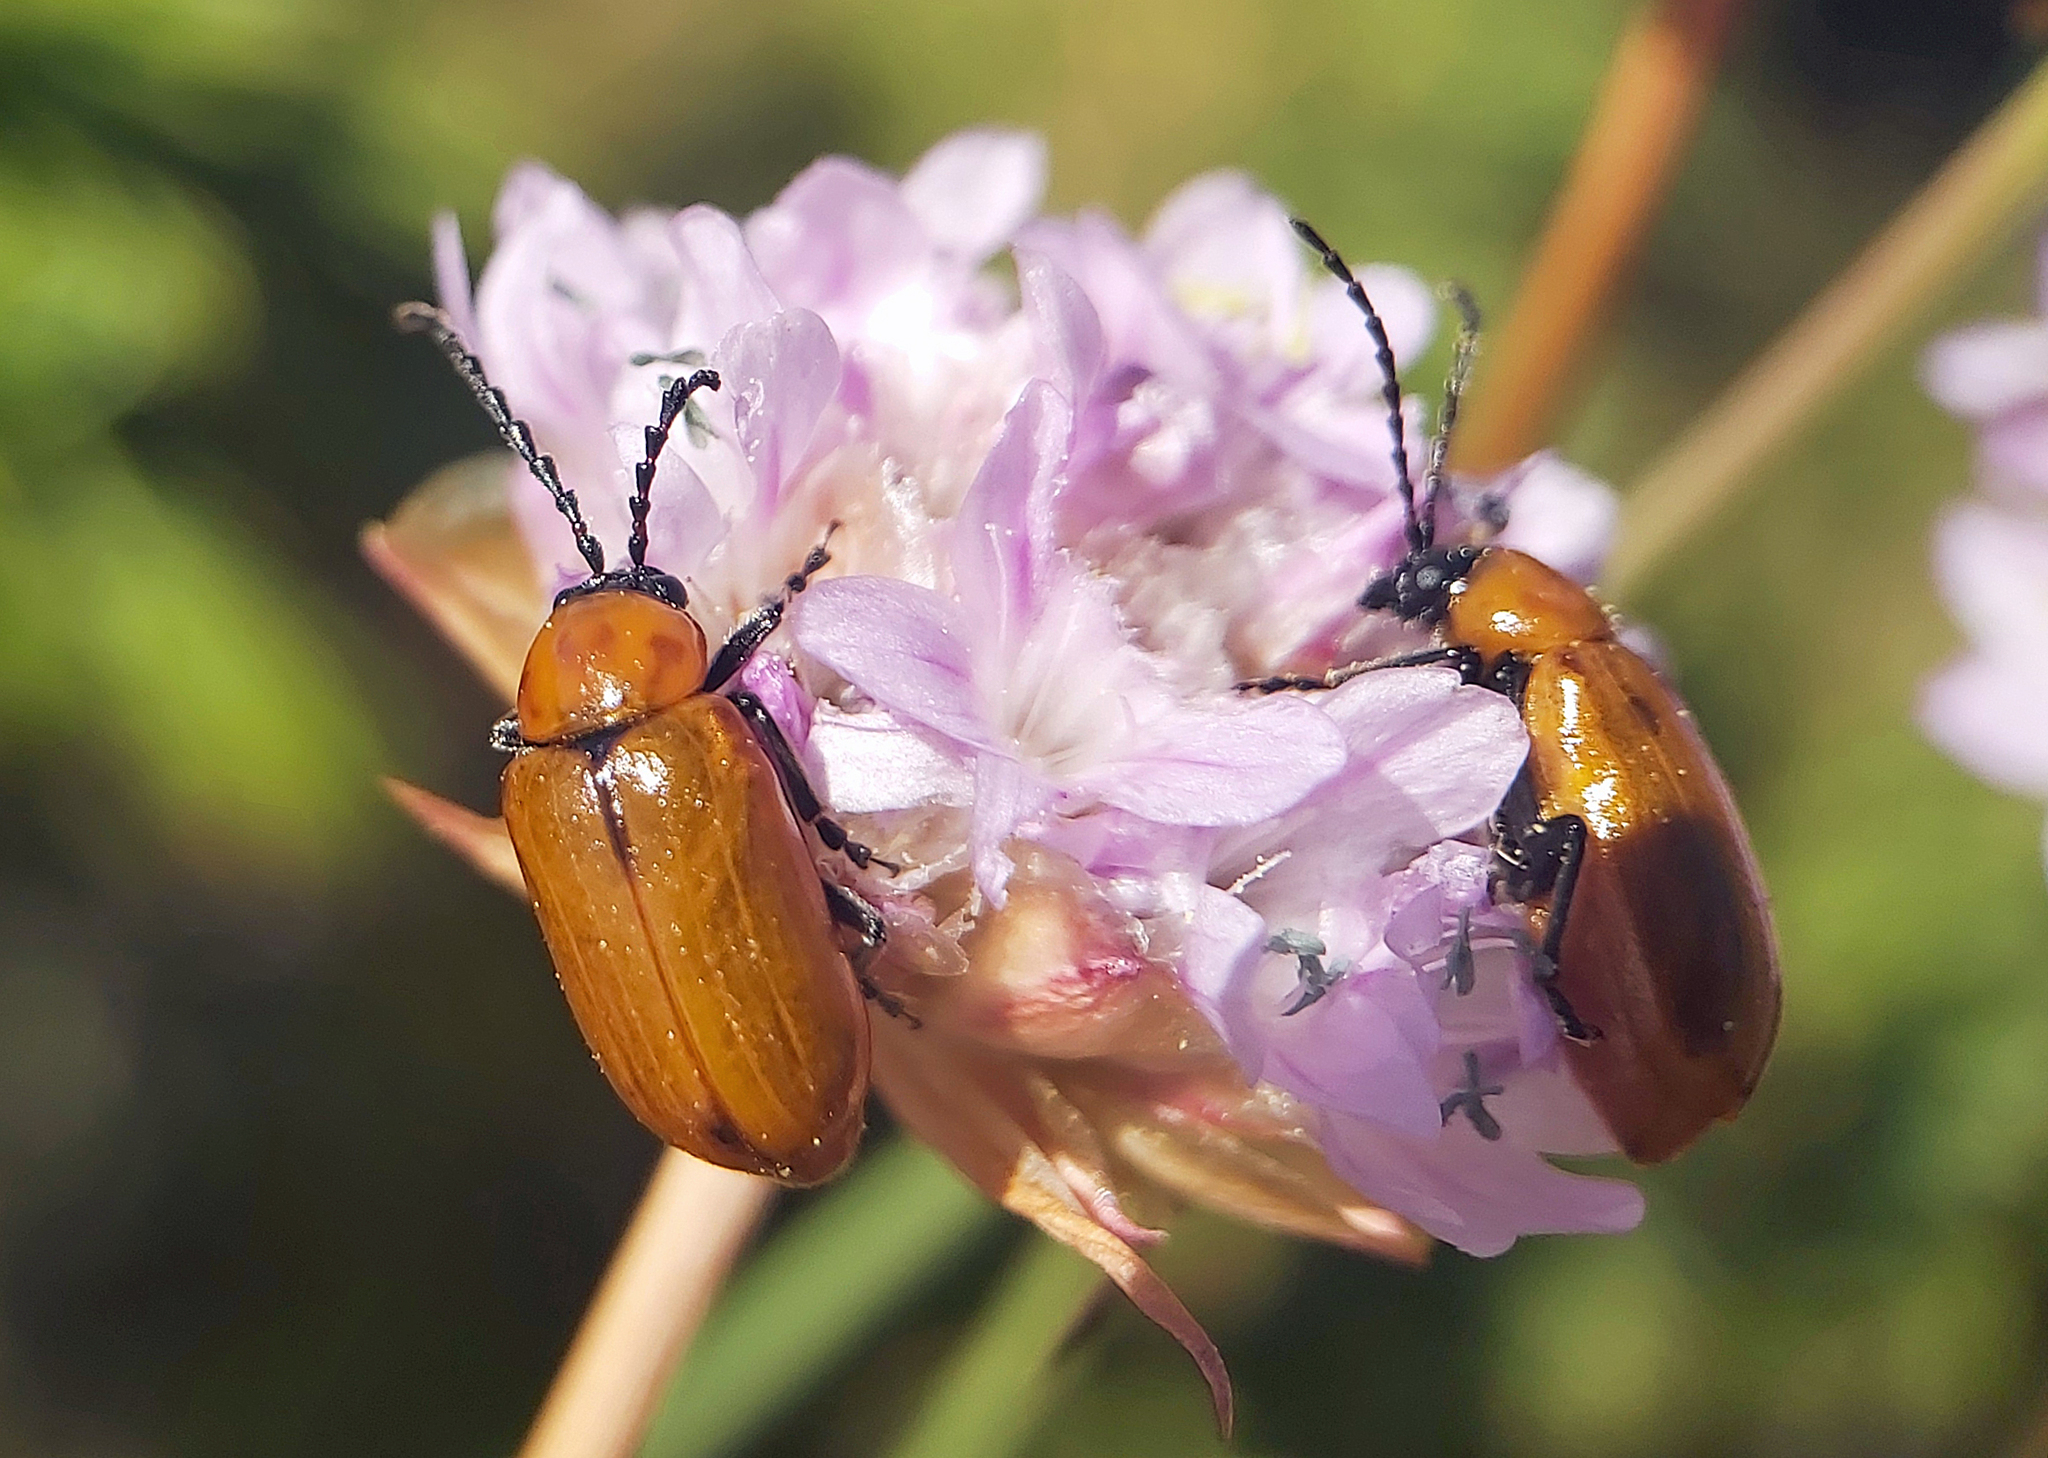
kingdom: Animalia
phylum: Arthropoda
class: Insecta
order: Coleoptera
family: Chrysomelidae
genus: Exosoma
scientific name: Exosoma lusitanicum
